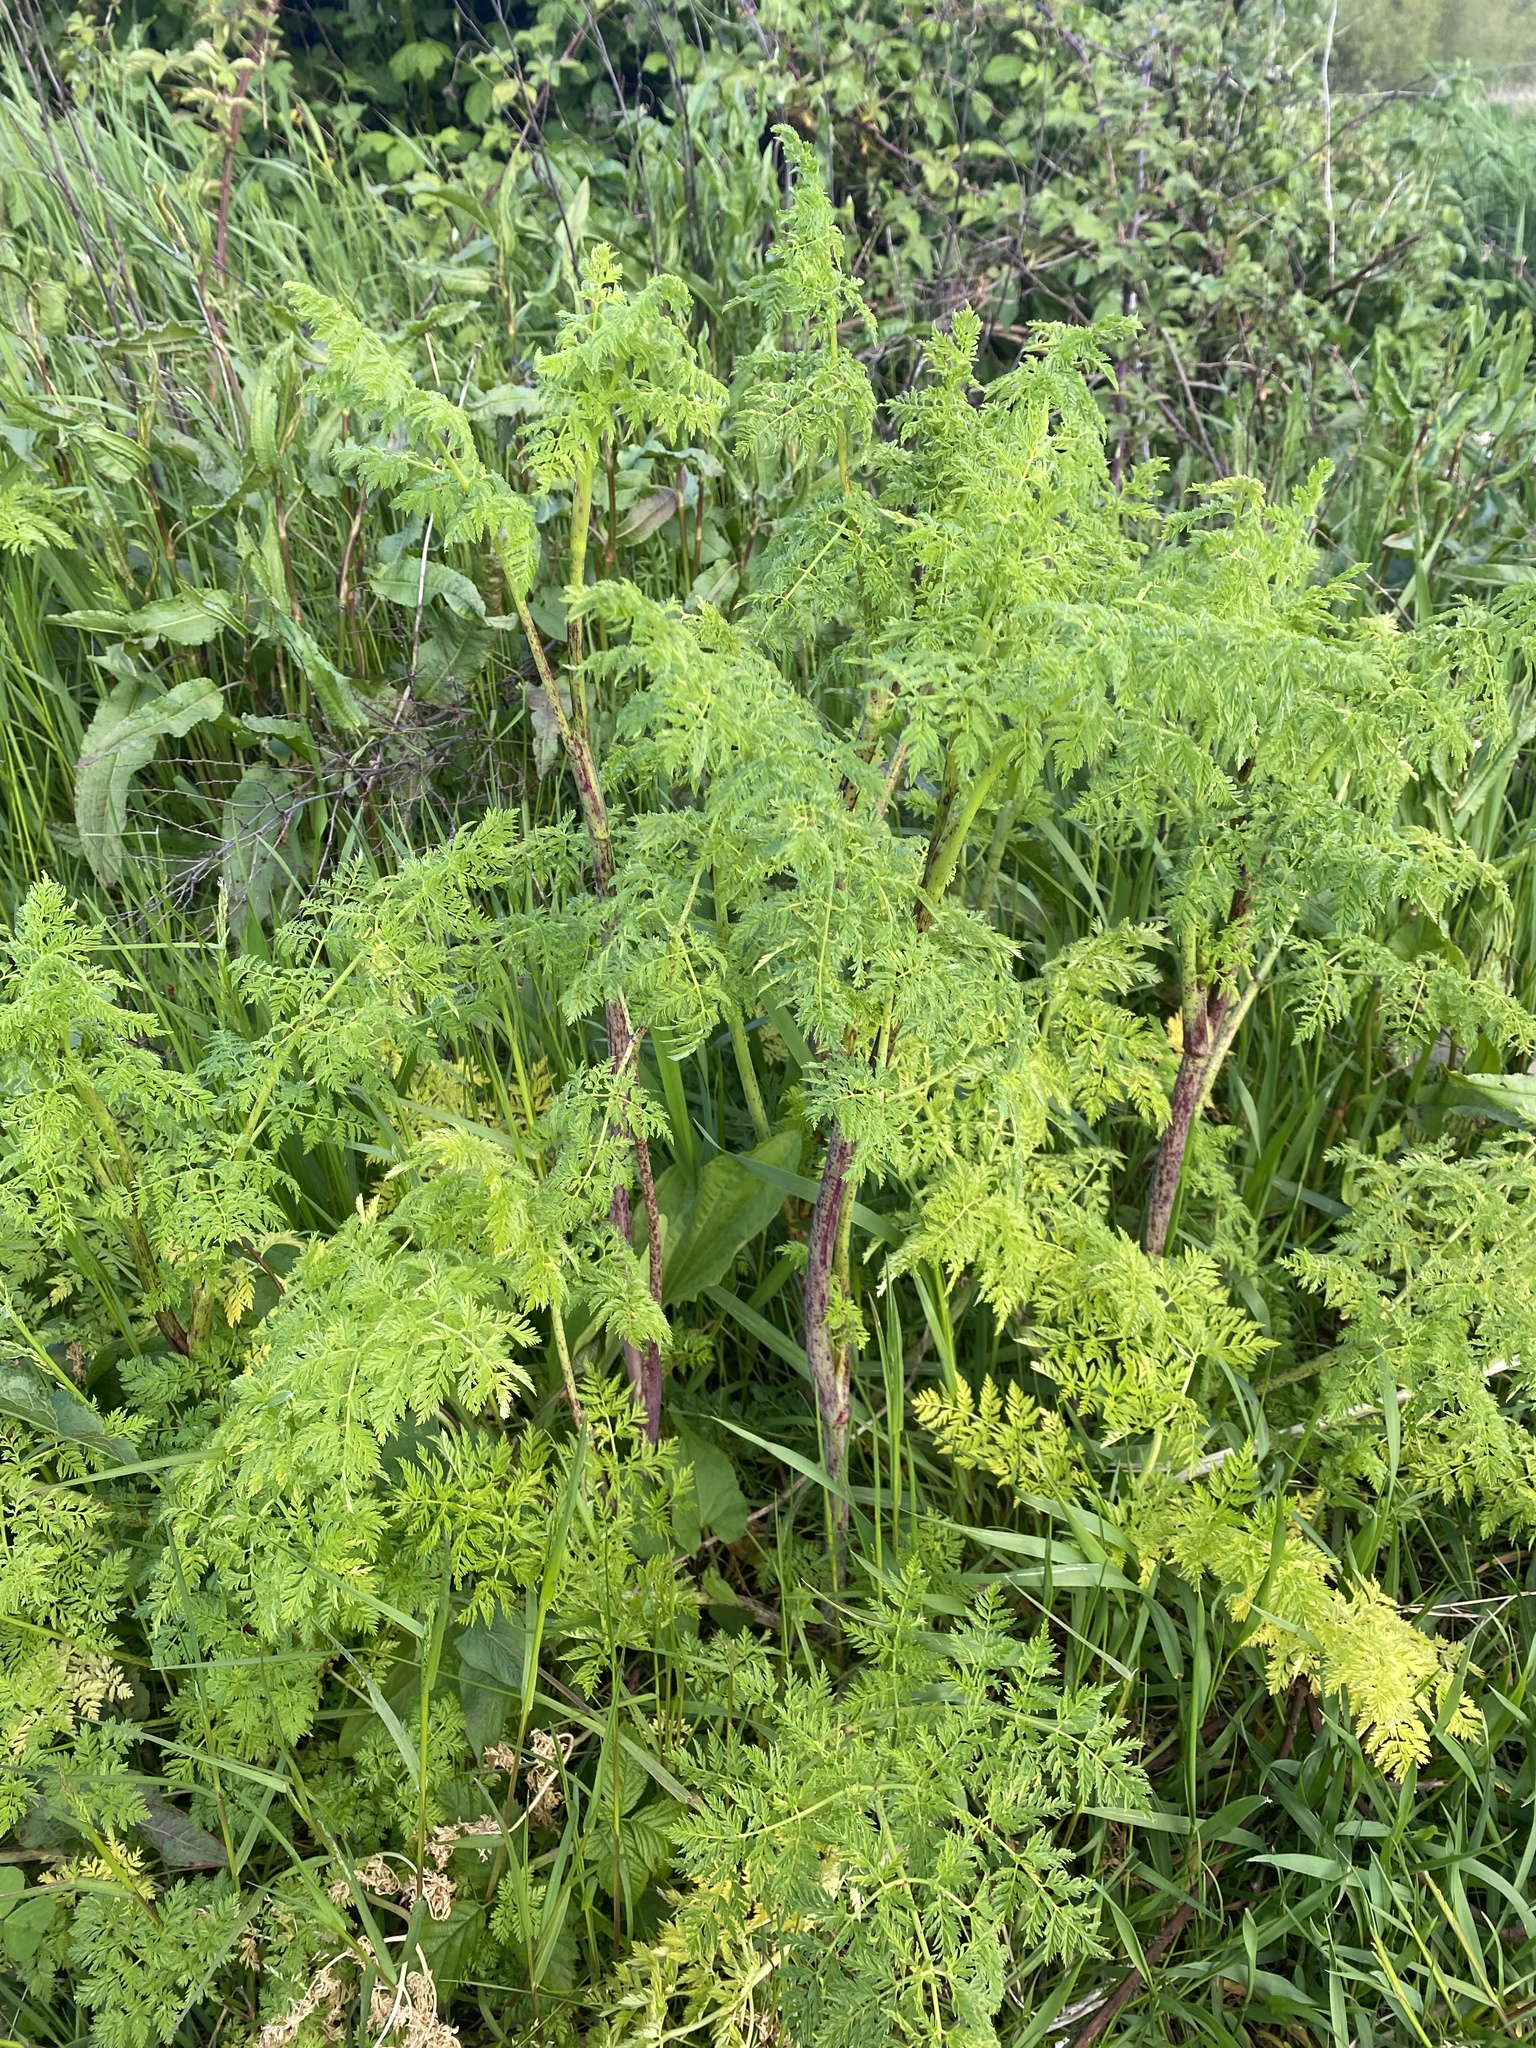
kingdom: Plantae
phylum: Tracheophyta
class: Magnoliopsida
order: Apiales
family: Apiaceae
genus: Conium
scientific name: Conium maculatum
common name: Hemlock
